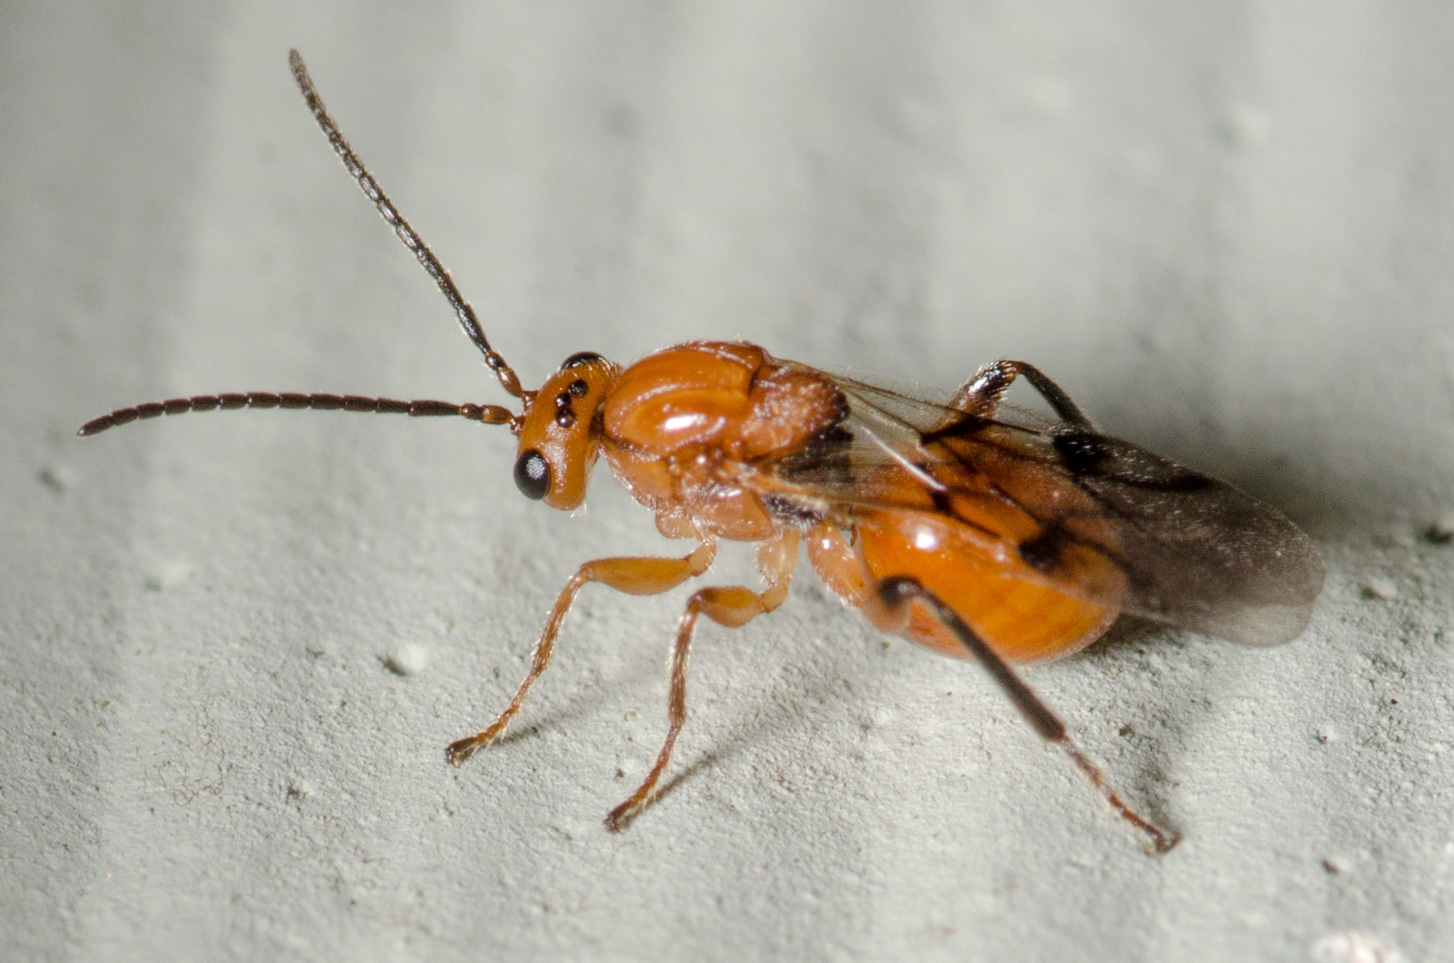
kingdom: Animalia
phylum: Arthropoda
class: Insecta
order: Hymenoptera
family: Cynipidae
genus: Belonocnema
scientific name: Belonocnema kinseyi
